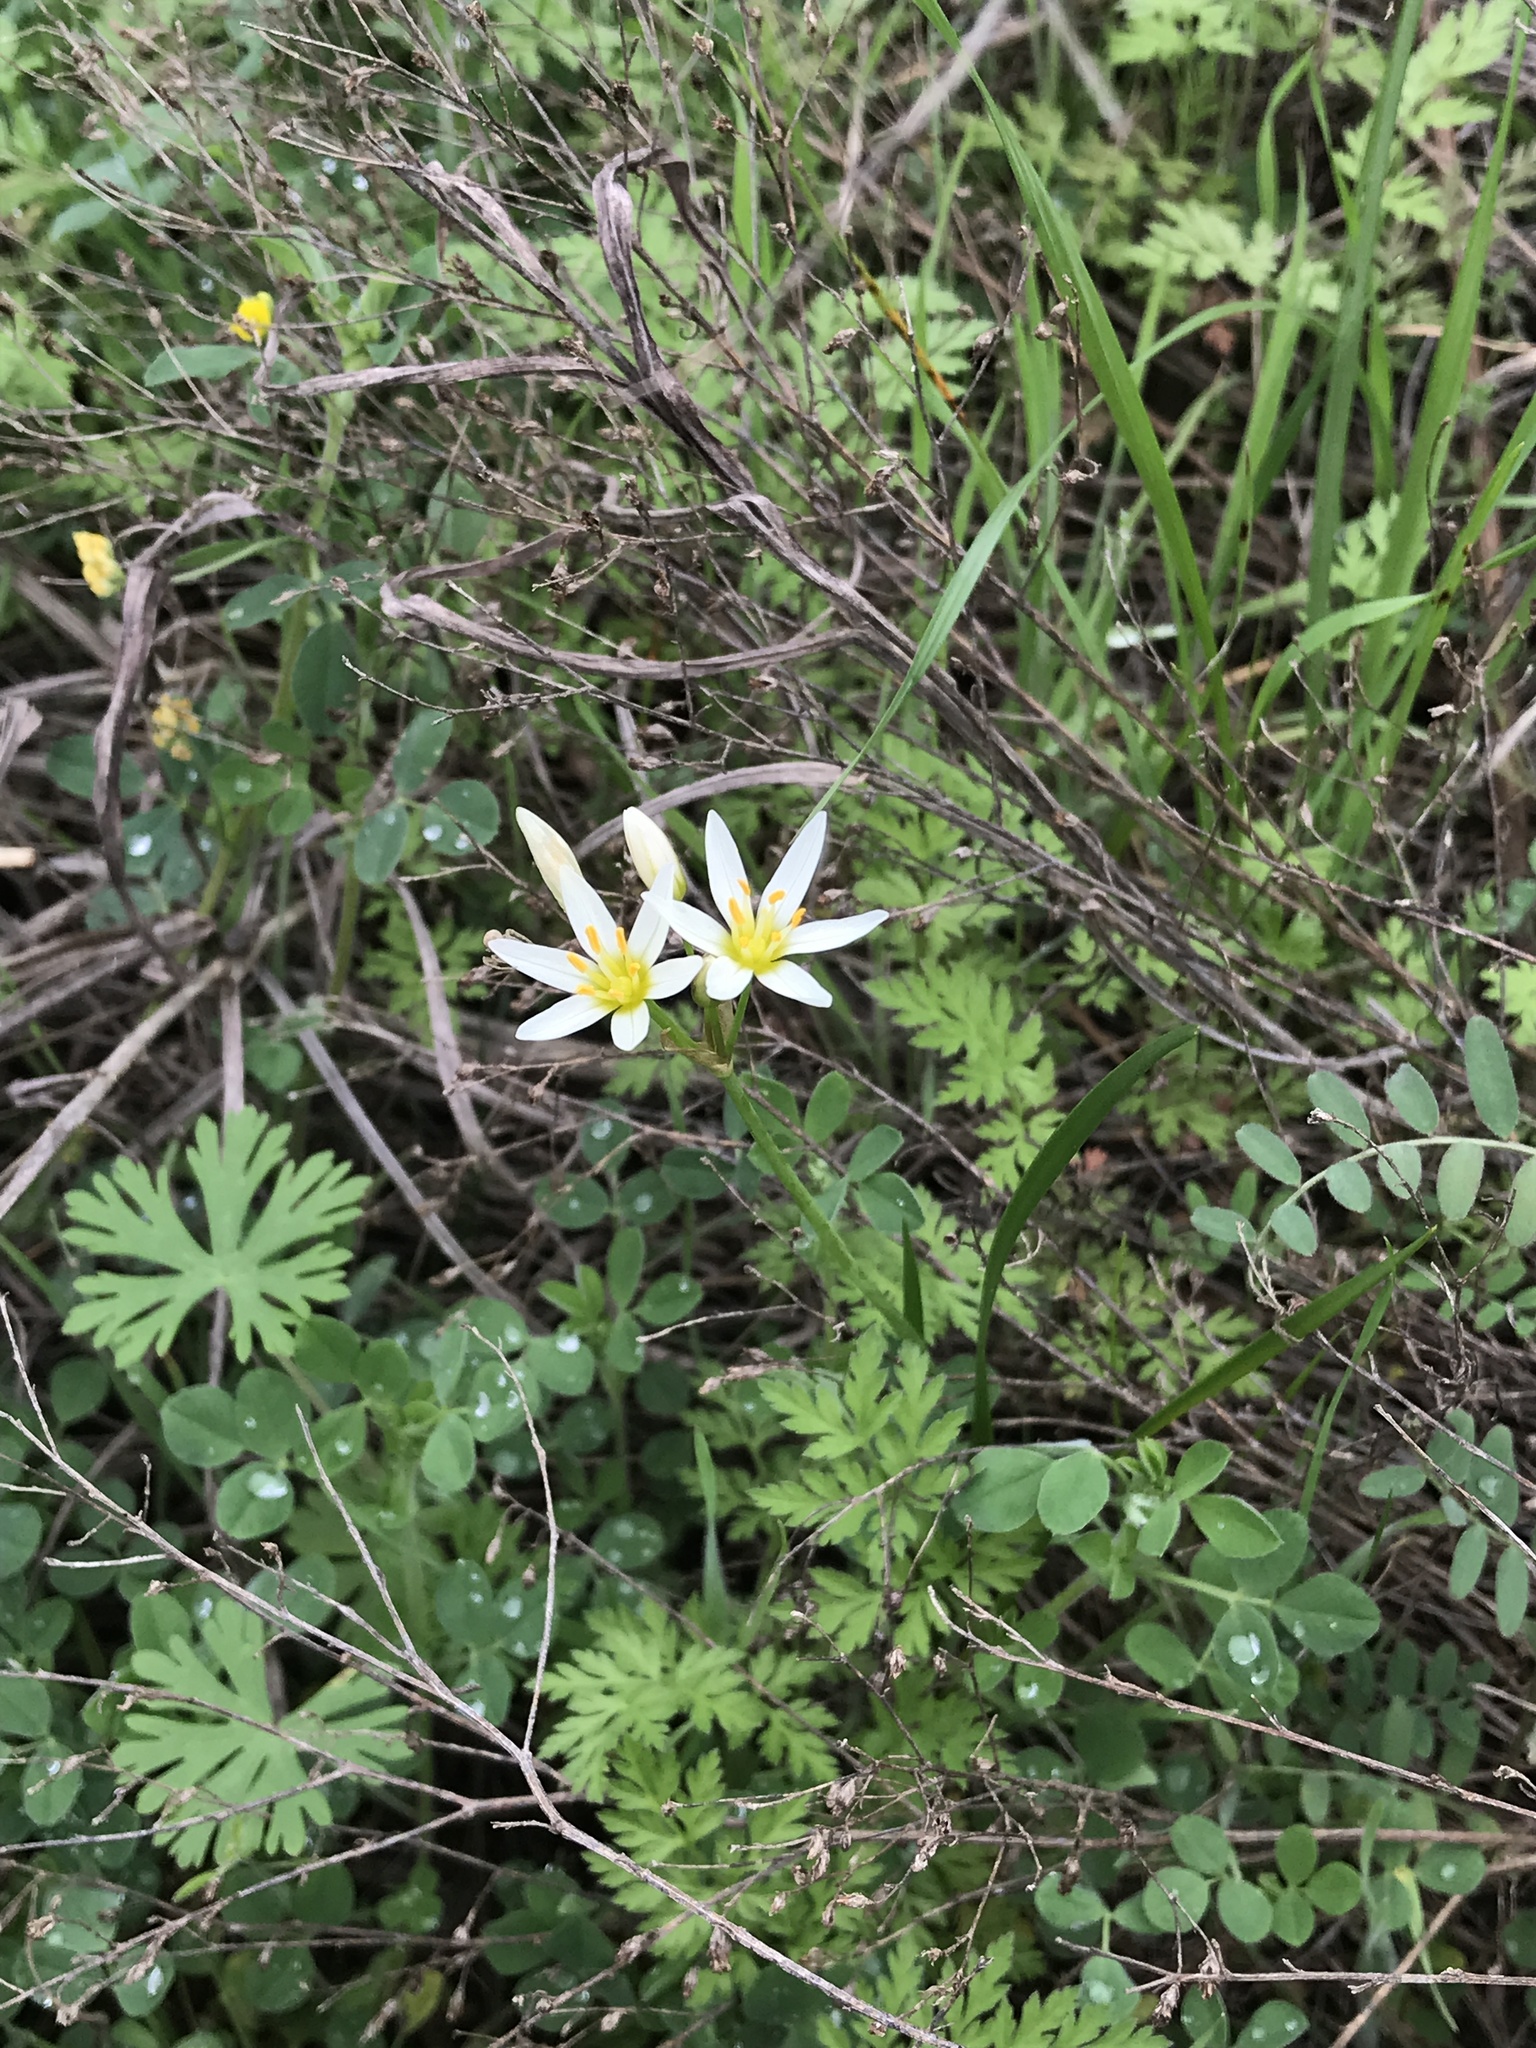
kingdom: Plantae
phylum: Tracheophyta
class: Liliopsida
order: Asparagales
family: Amaryllidaceae
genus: Nothoscordum
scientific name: Nothoscordum bivalve
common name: Crow-poison
